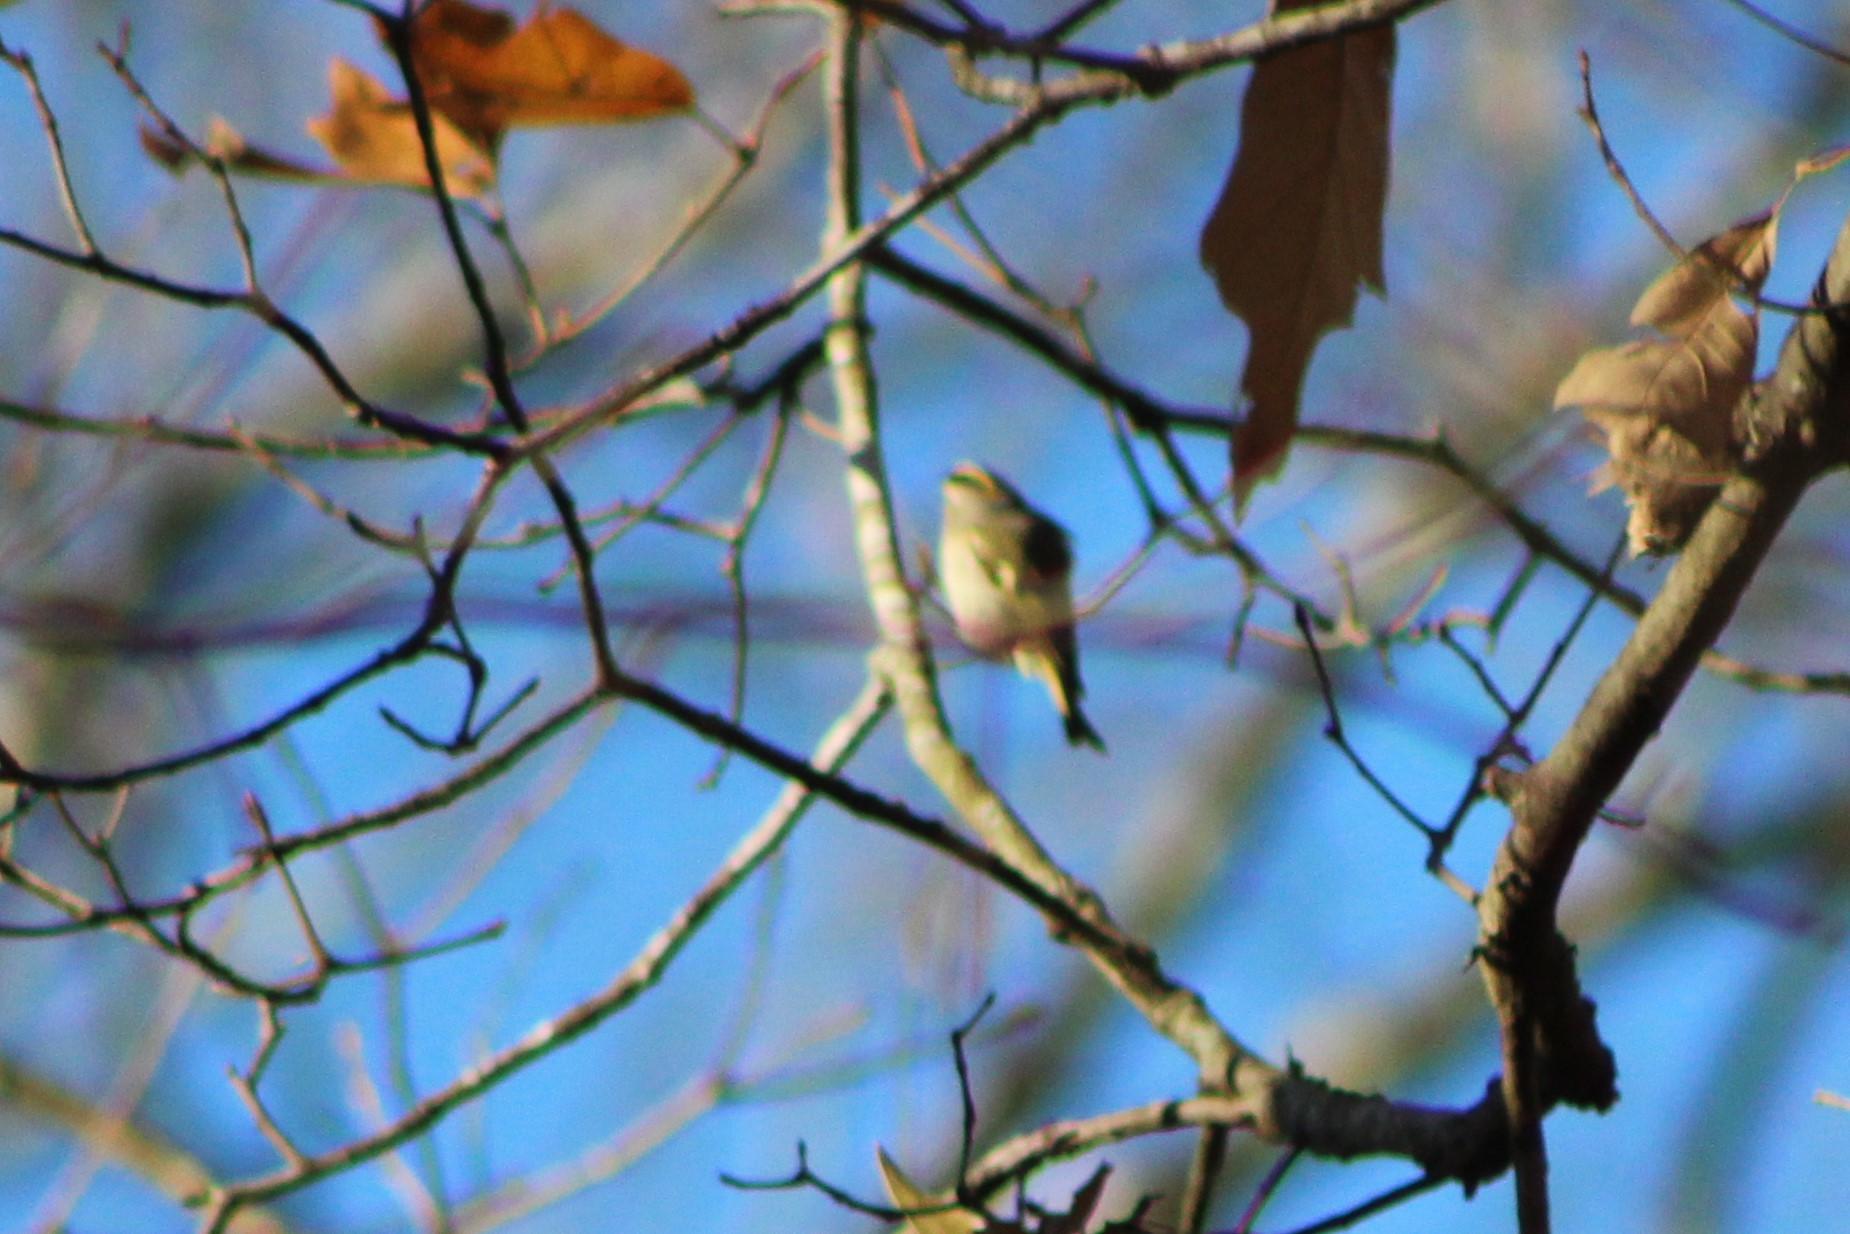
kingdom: Animalia
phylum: Chordata
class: Aves
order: Passeriformes
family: Regulidae
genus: Regulus
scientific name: Regulus satrapa
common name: Golden-crowned kinglet
